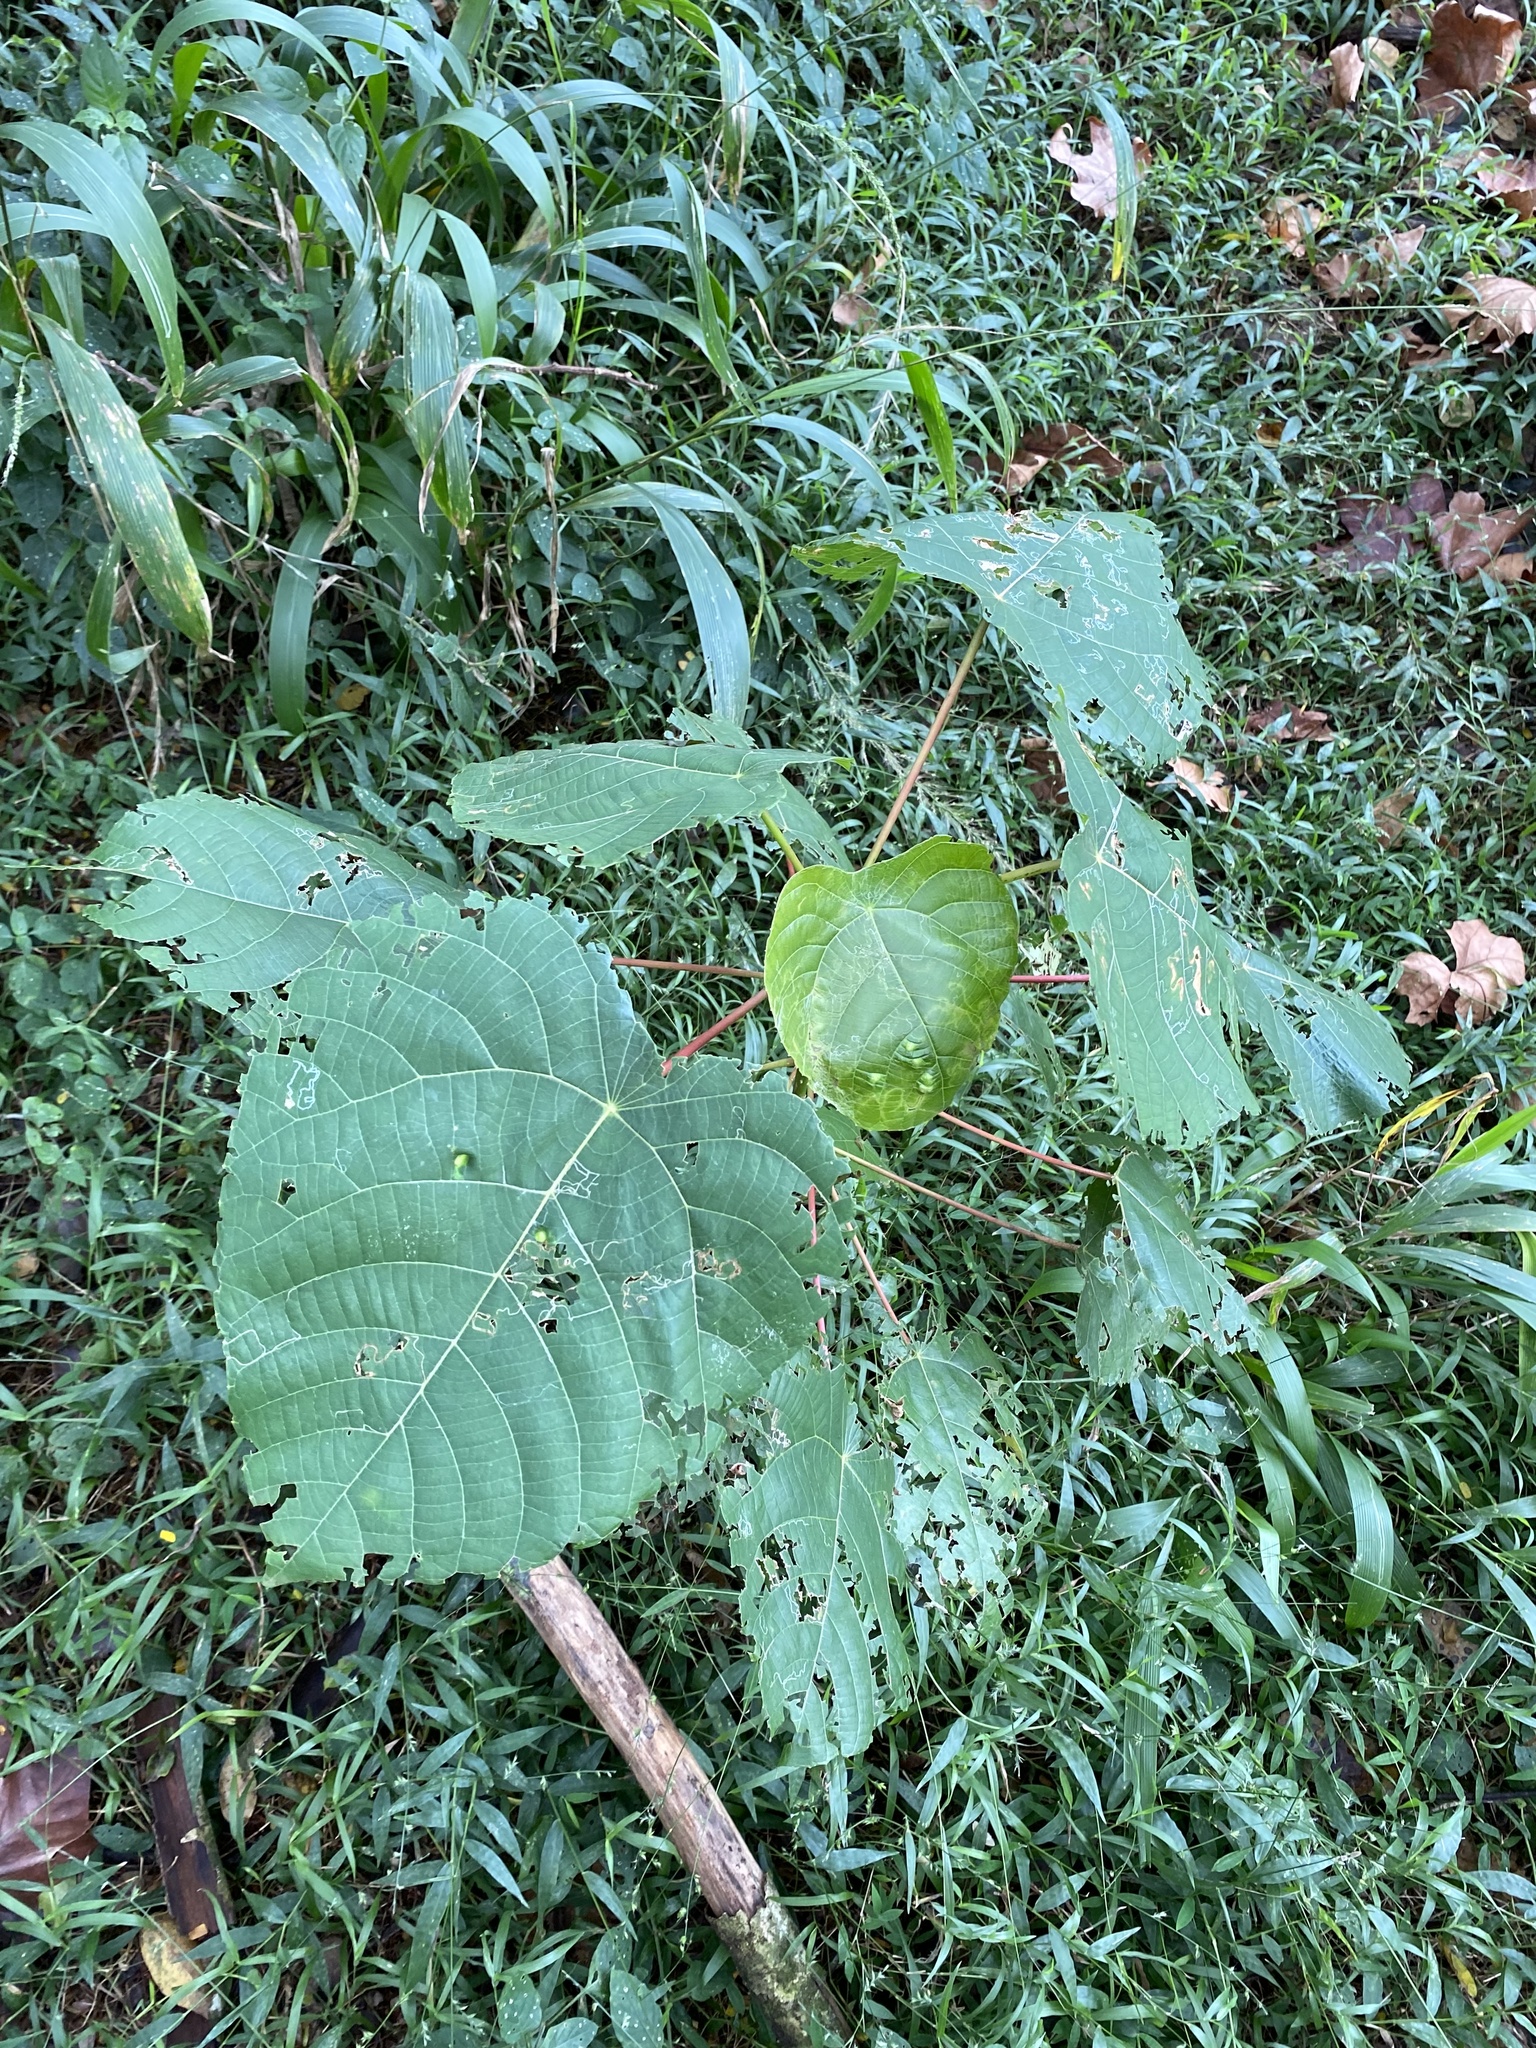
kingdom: Plantae
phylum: Tracheophyta
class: Magnoliopsida
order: Malpighiales
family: Euphorbiaceae
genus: Macaranga
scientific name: Macaranga capensis
